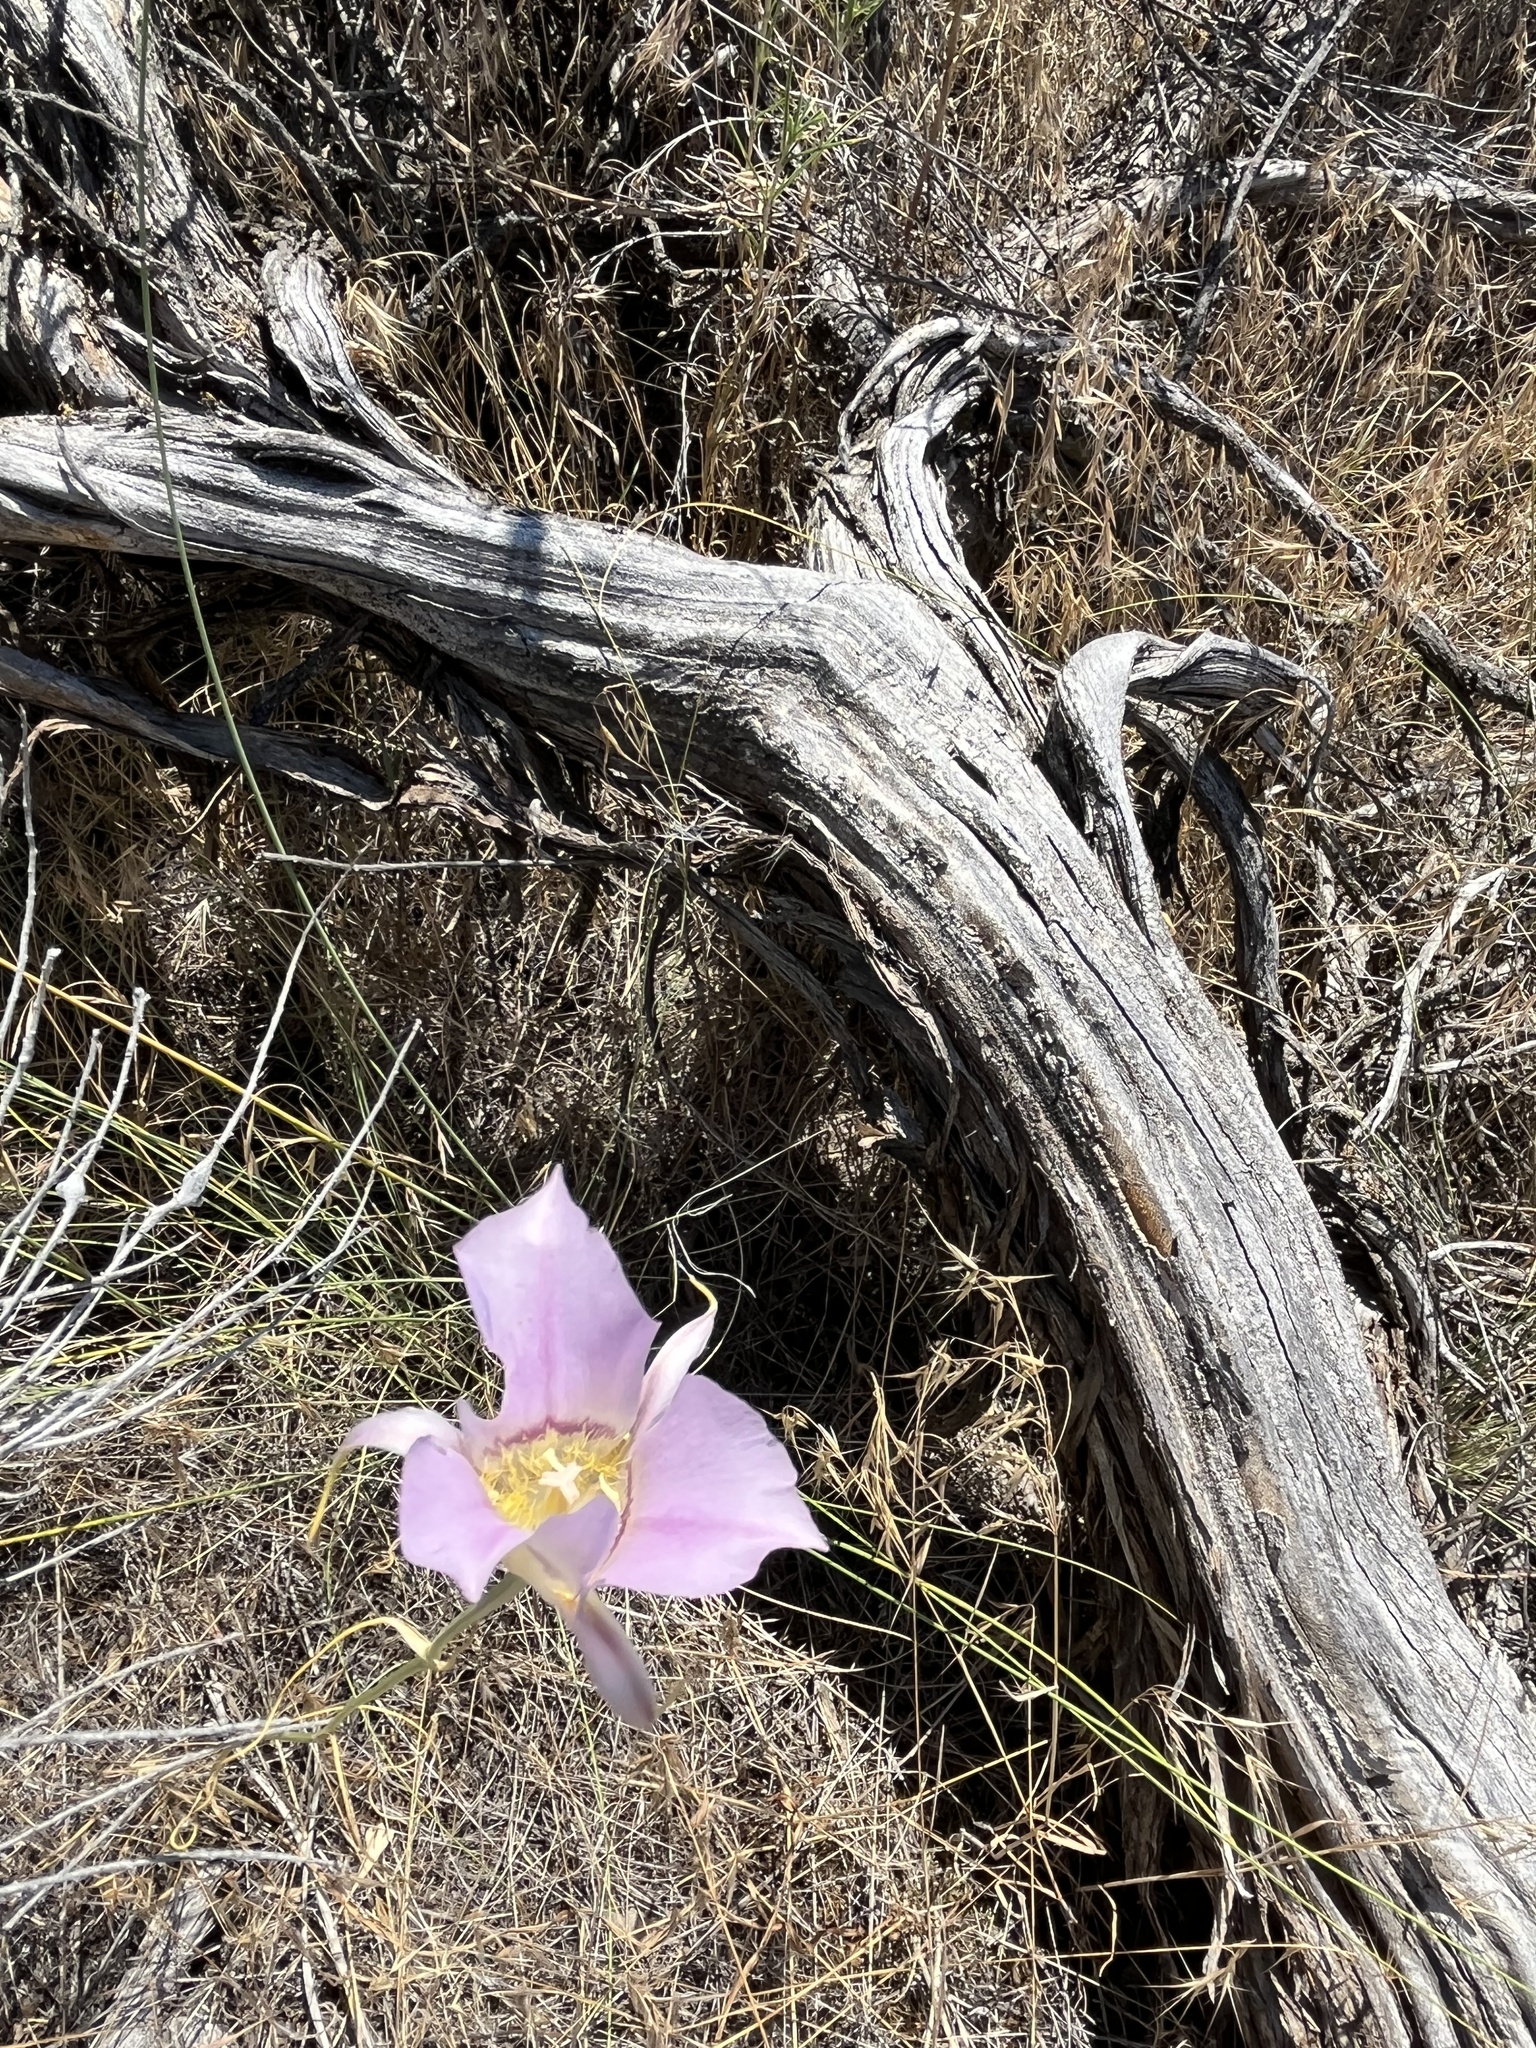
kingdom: Plantae
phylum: Tracheophyta
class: Liliopsida
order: Liliales
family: Liliaceae
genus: Calochortus
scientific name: Calochortus macrocarpus
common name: Green-band mariposa lily
